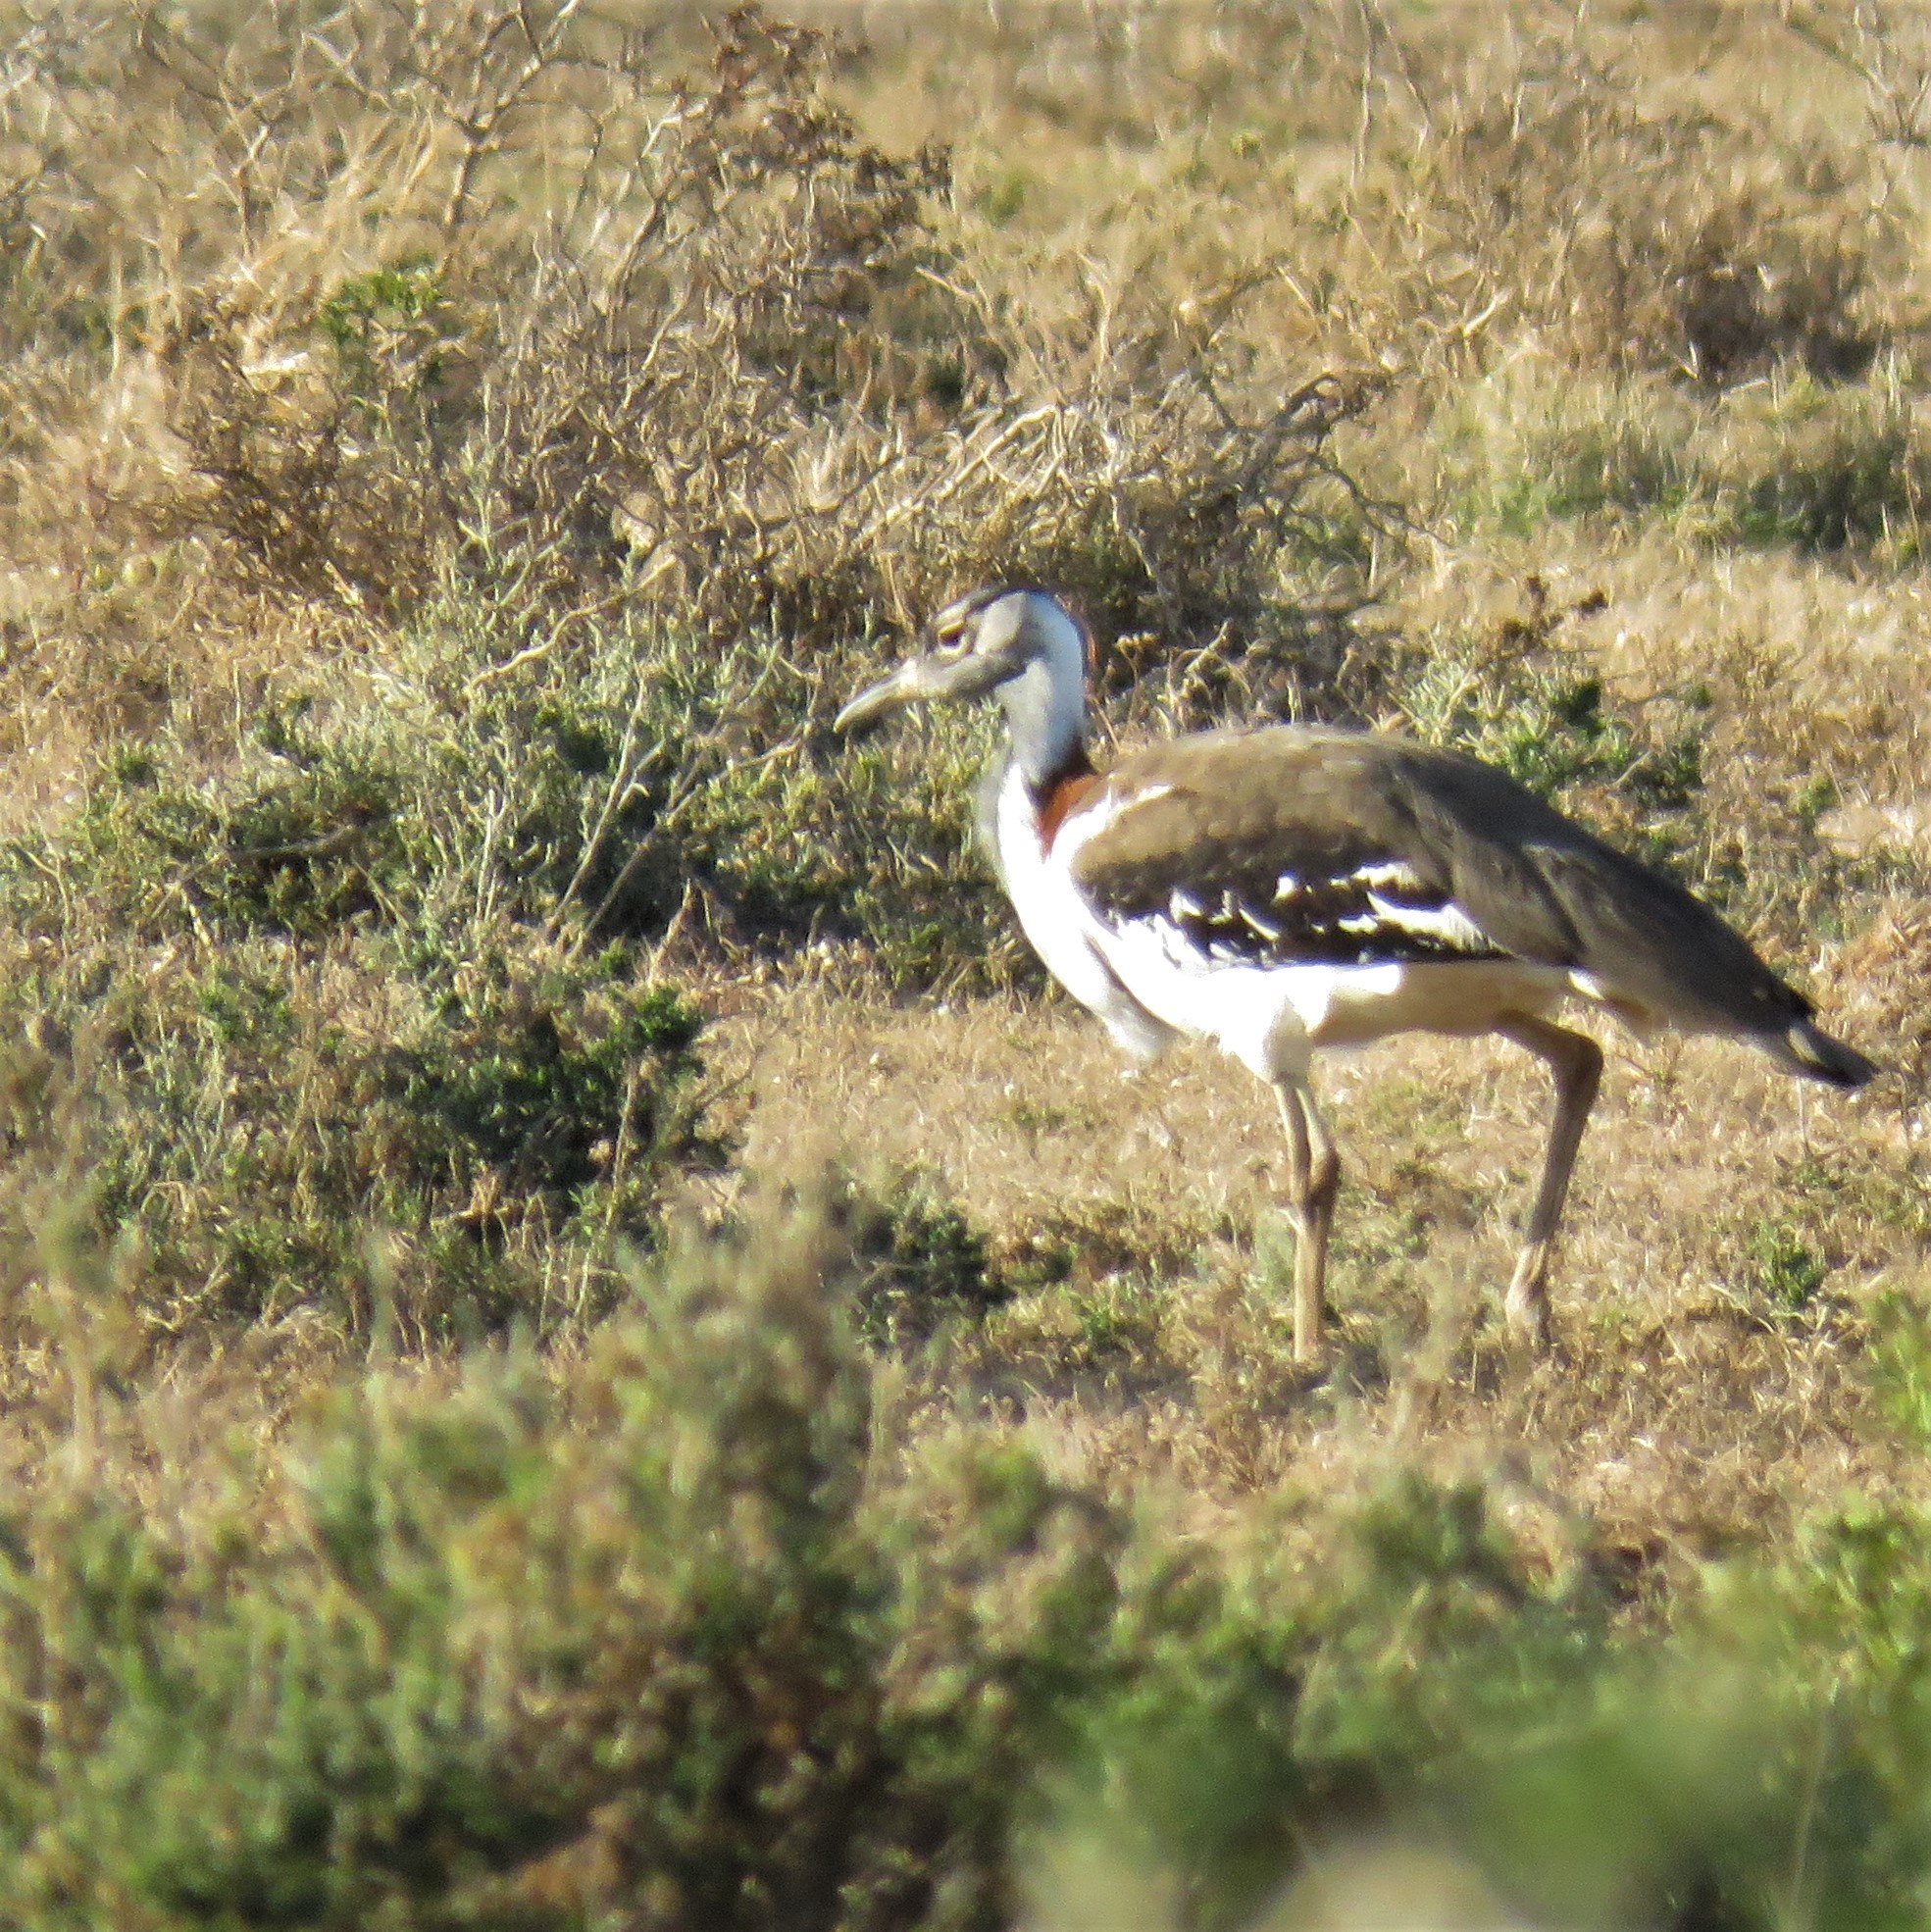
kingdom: Animalia
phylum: Chordata
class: Aves
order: Otidiformes
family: Otididae
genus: Neotis
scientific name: Neotis denhami
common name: Denham's bustard
